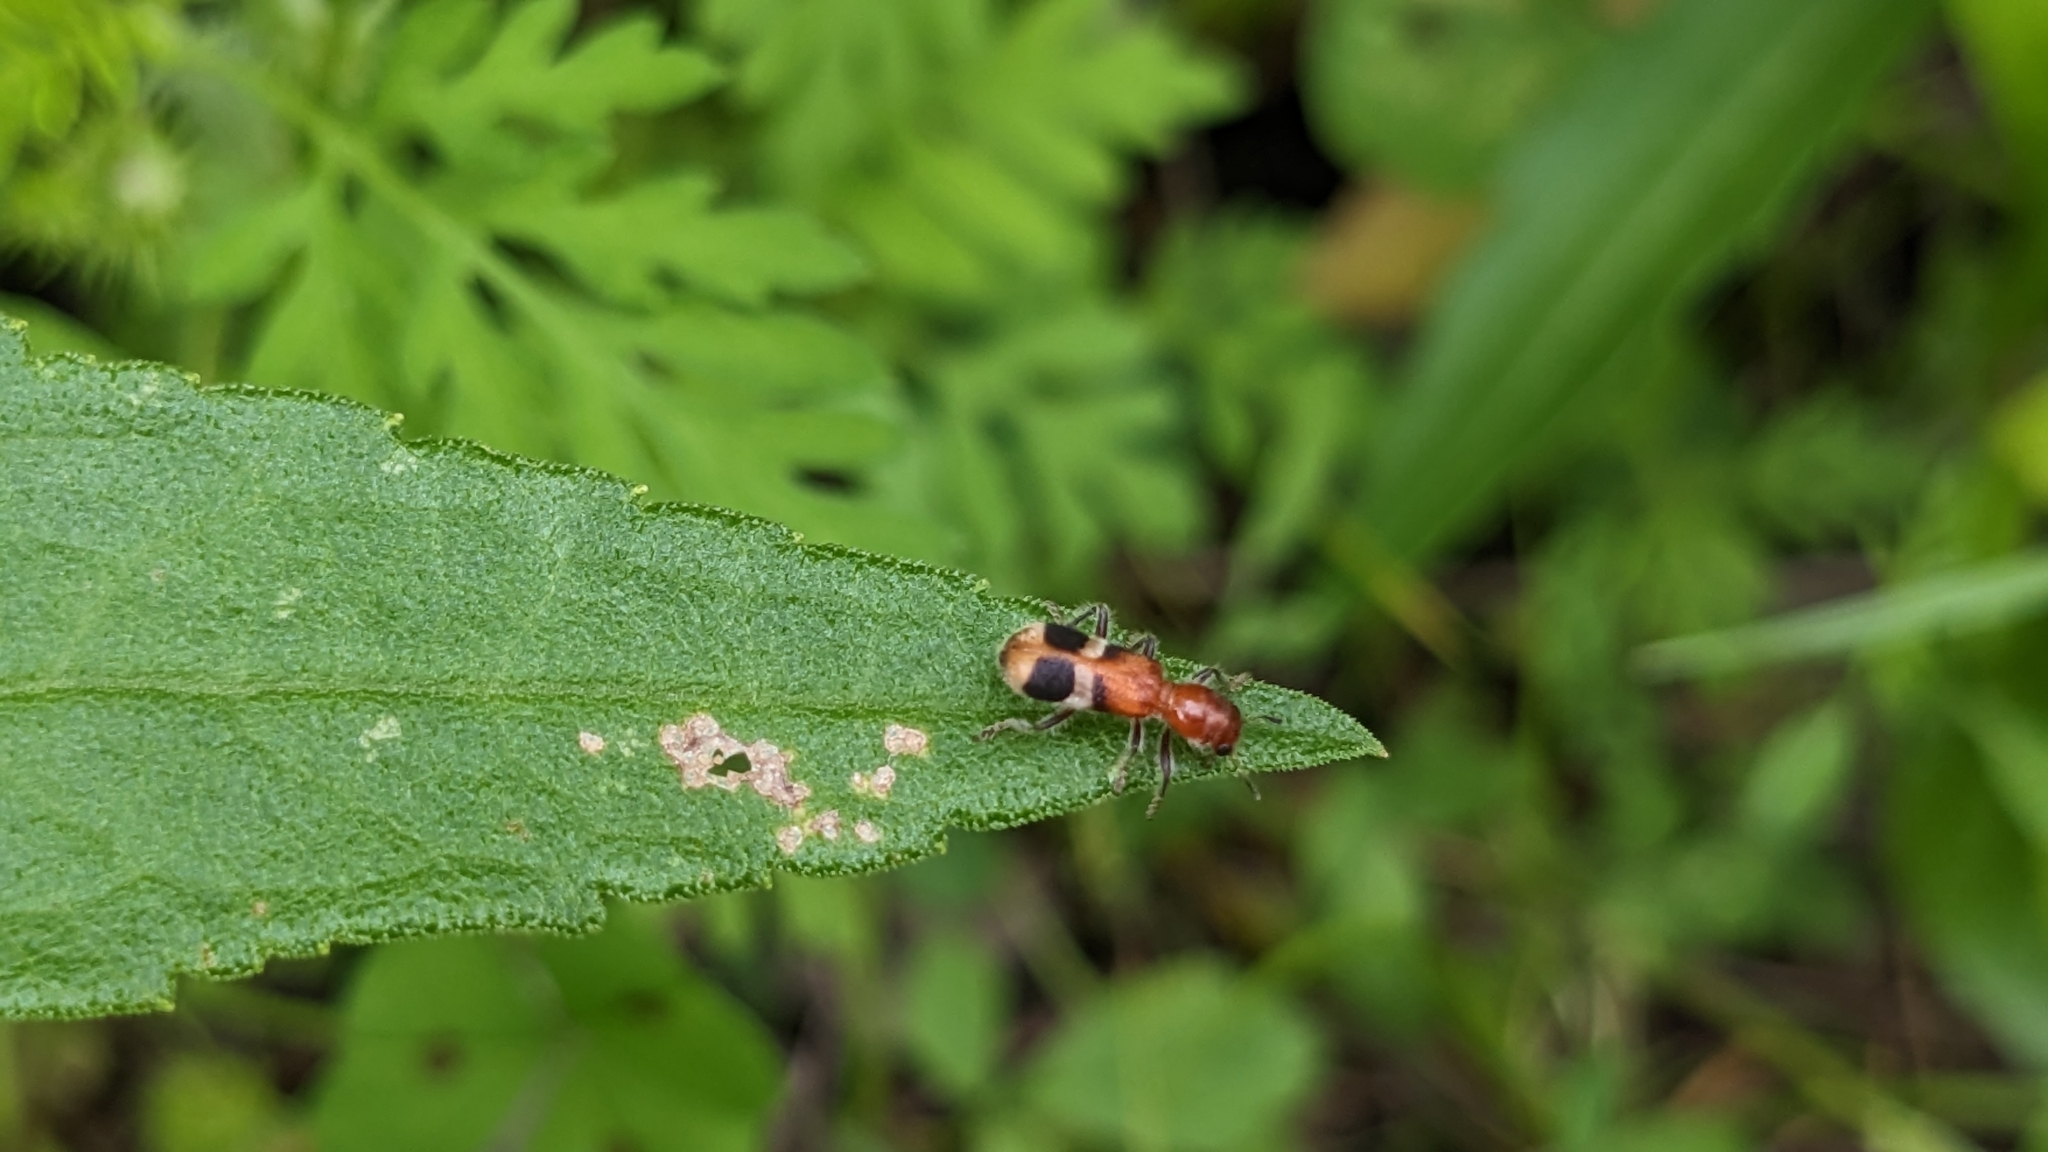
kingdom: Animalia
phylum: Arthropoda
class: Insecta
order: Coleoptera
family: Cleridae
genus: Enoclerus
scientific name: Enoclerus rosmarus
